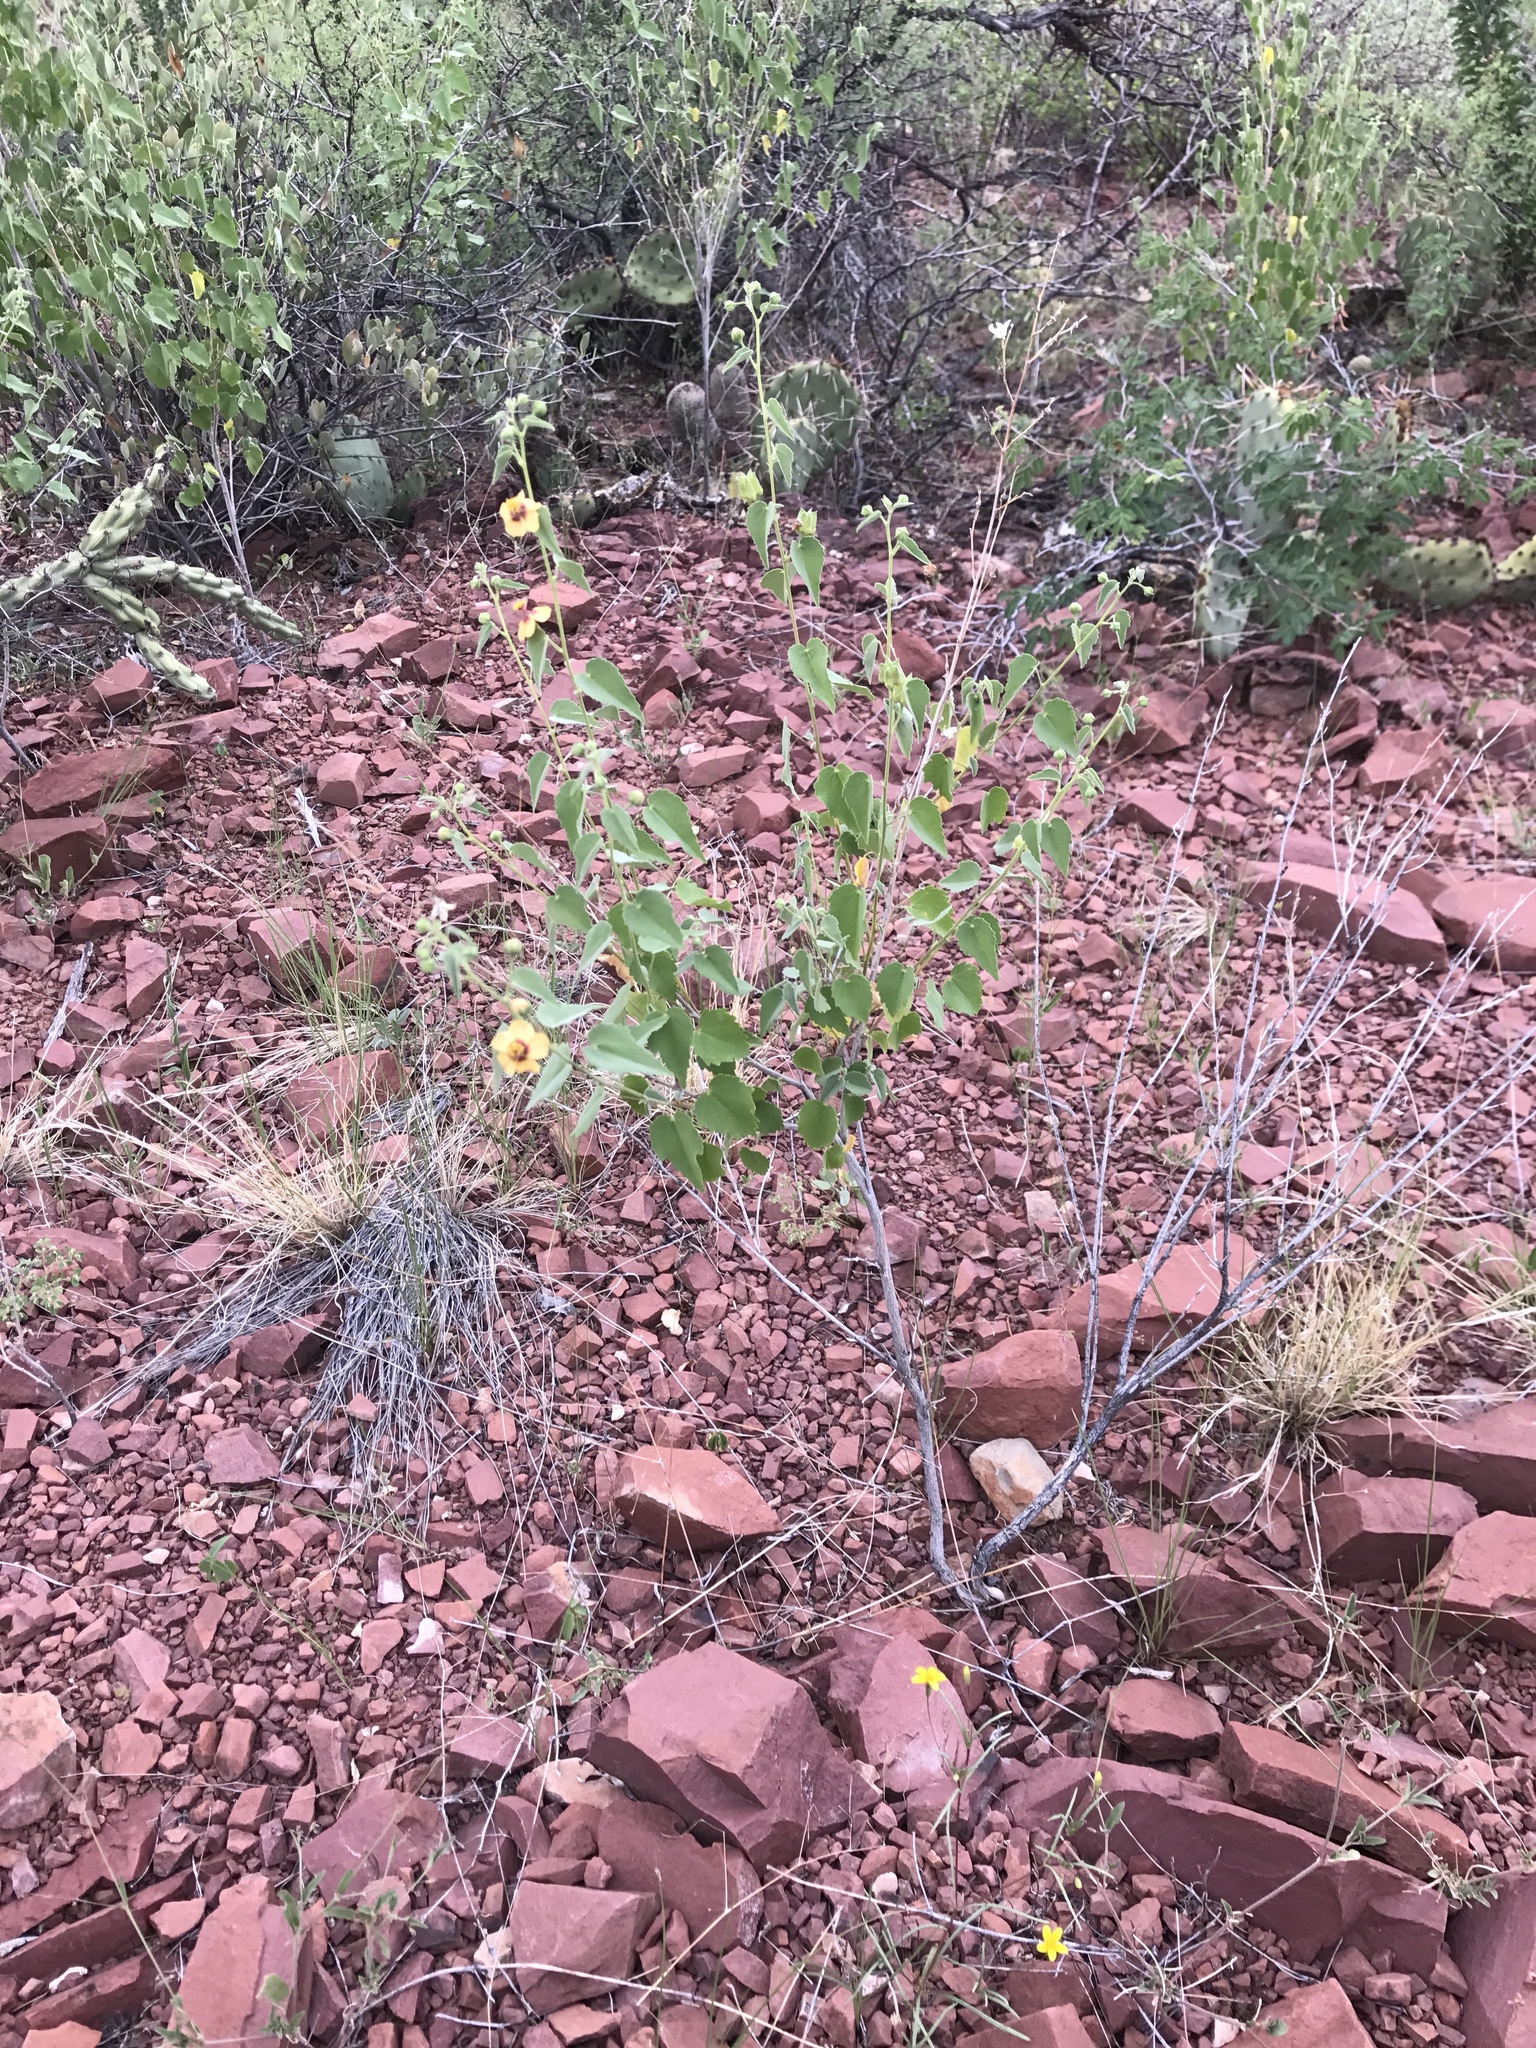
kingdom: Plantae
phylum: Tracheophyta
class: Magnoliopsida
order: Malvales
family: Malvaceae
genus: Abutilon
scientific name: Abutilon incanum
